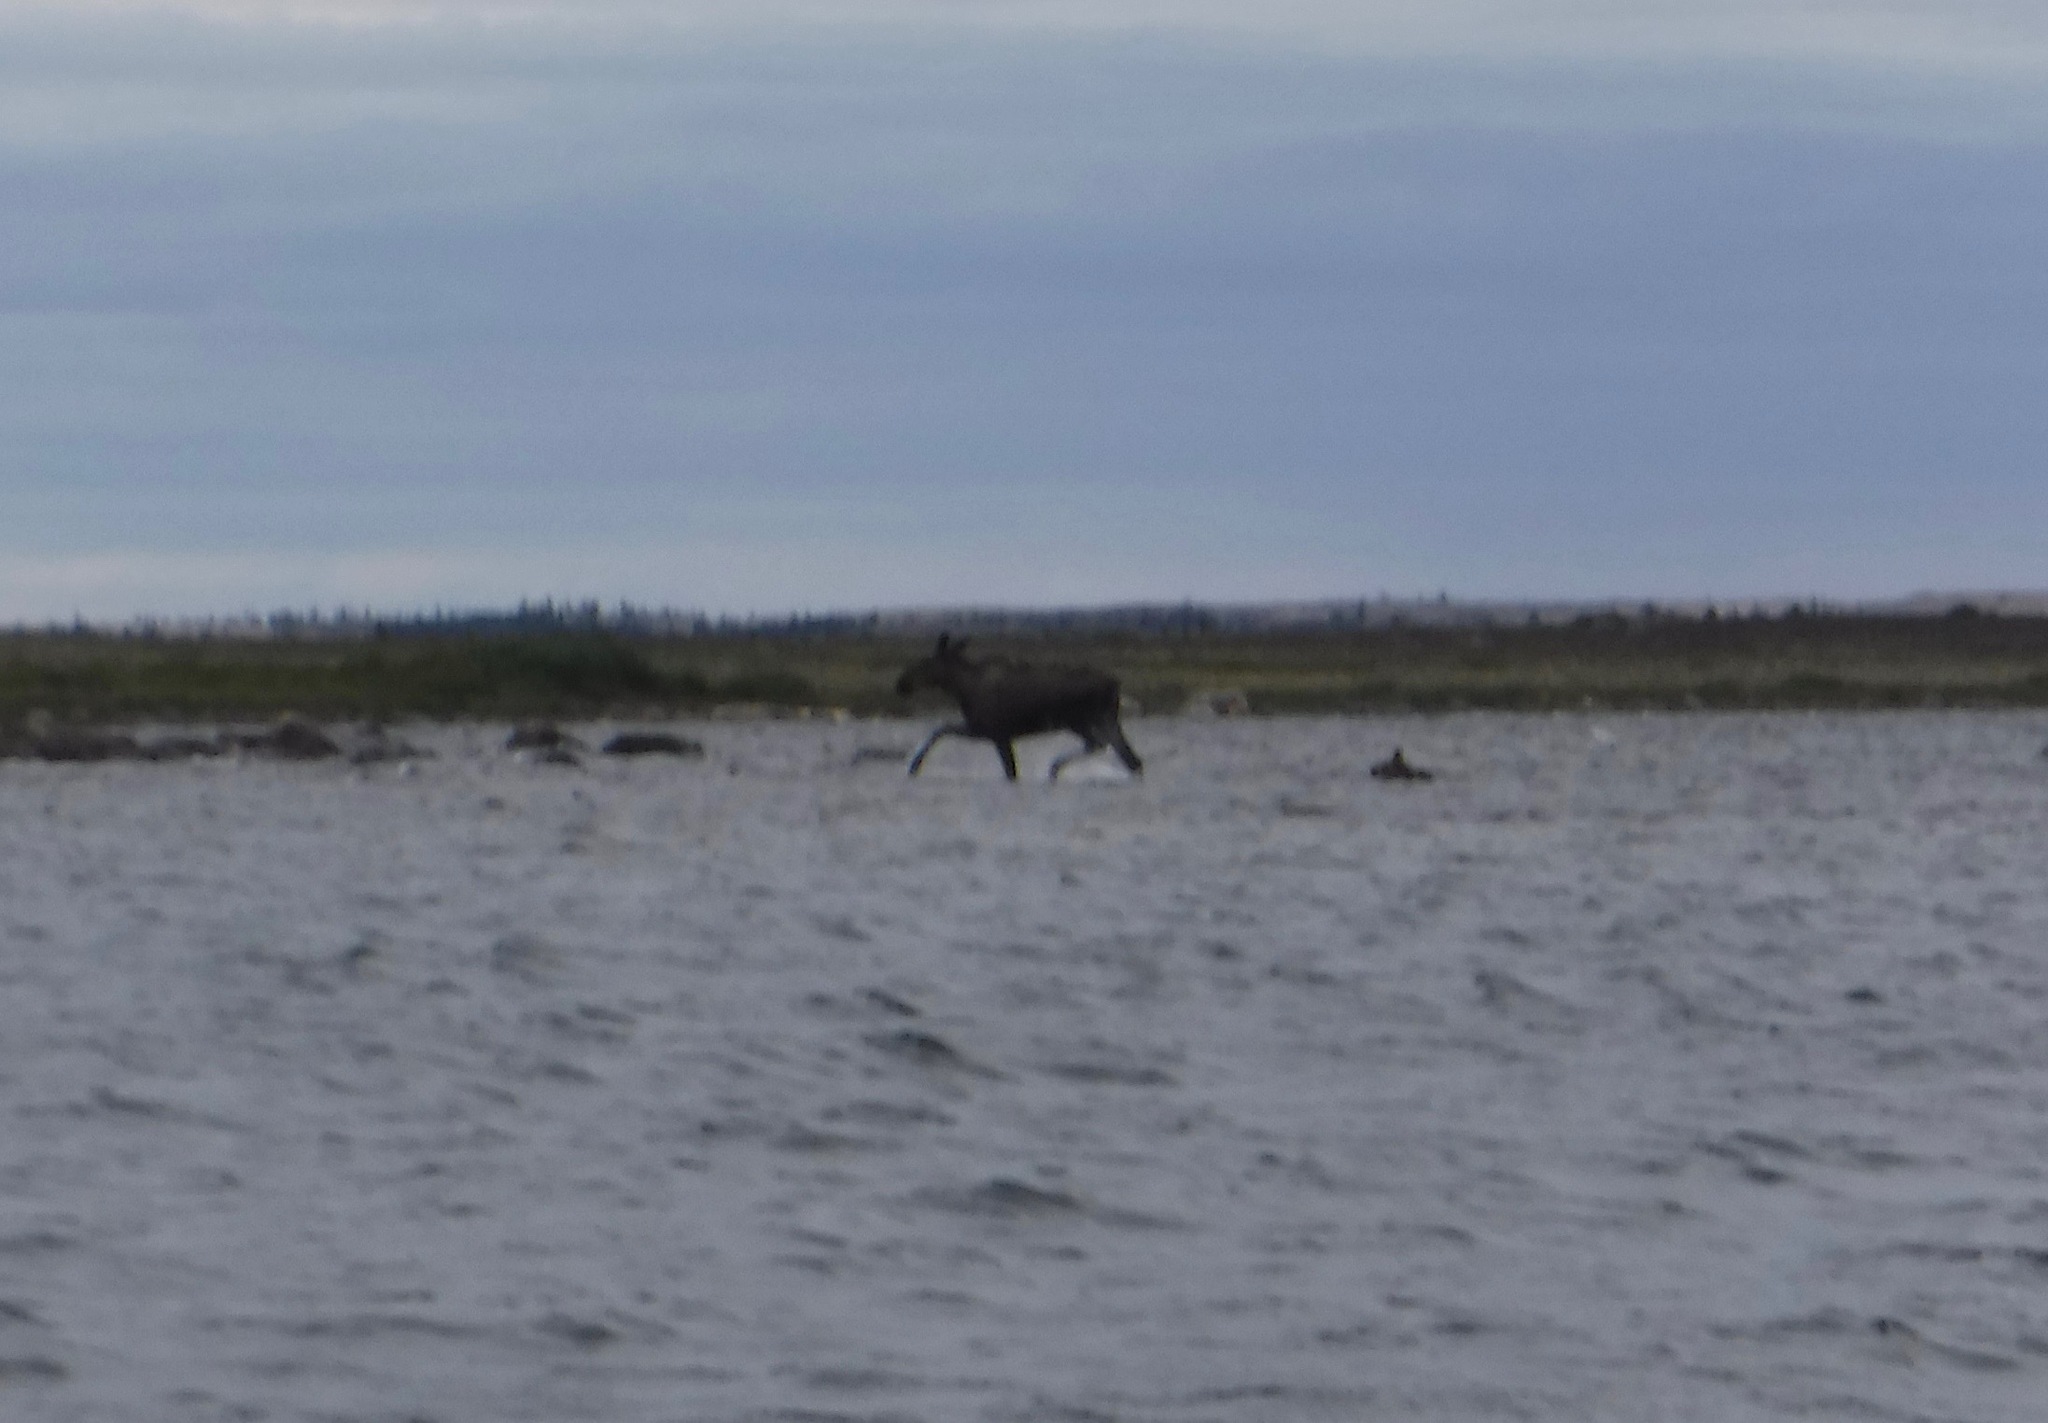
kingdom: Animalia
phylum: Chordata
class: Mammalia
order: Artiodactyla
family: Cervidae
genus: Alces
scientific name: Alces alces
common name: Moose
